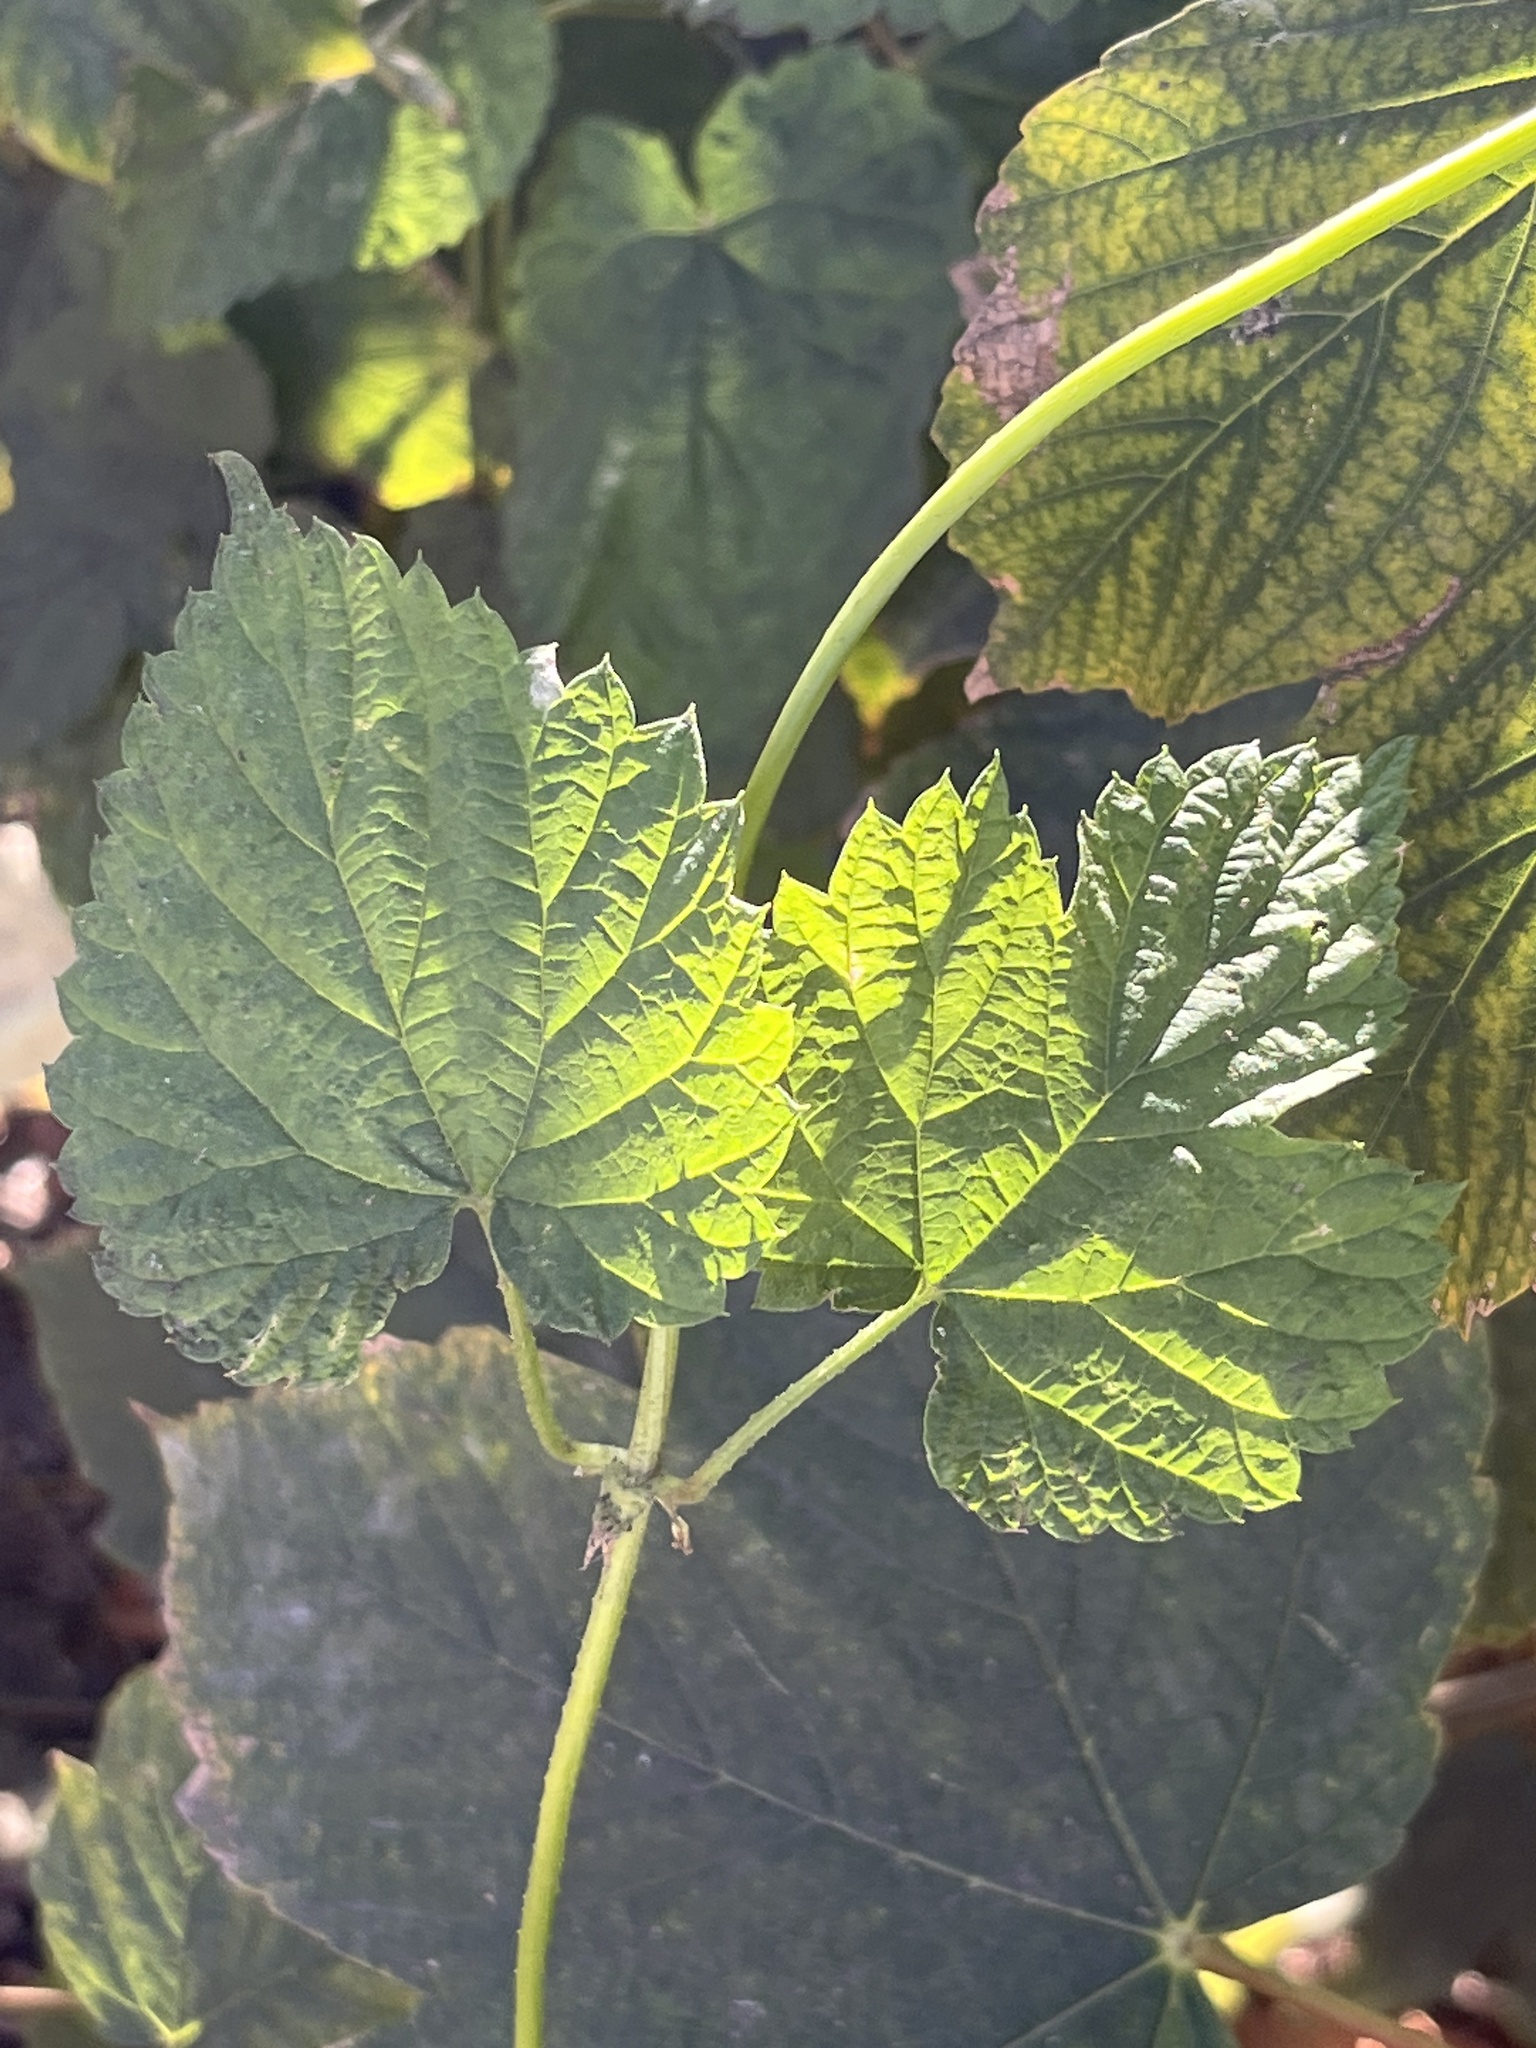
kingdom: Plantae
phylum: Tracheophyta
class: Magnoliopsida
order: Rosales
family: Cannabaceae
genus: Humulus
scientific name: Humulus lupulus
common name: Hop
